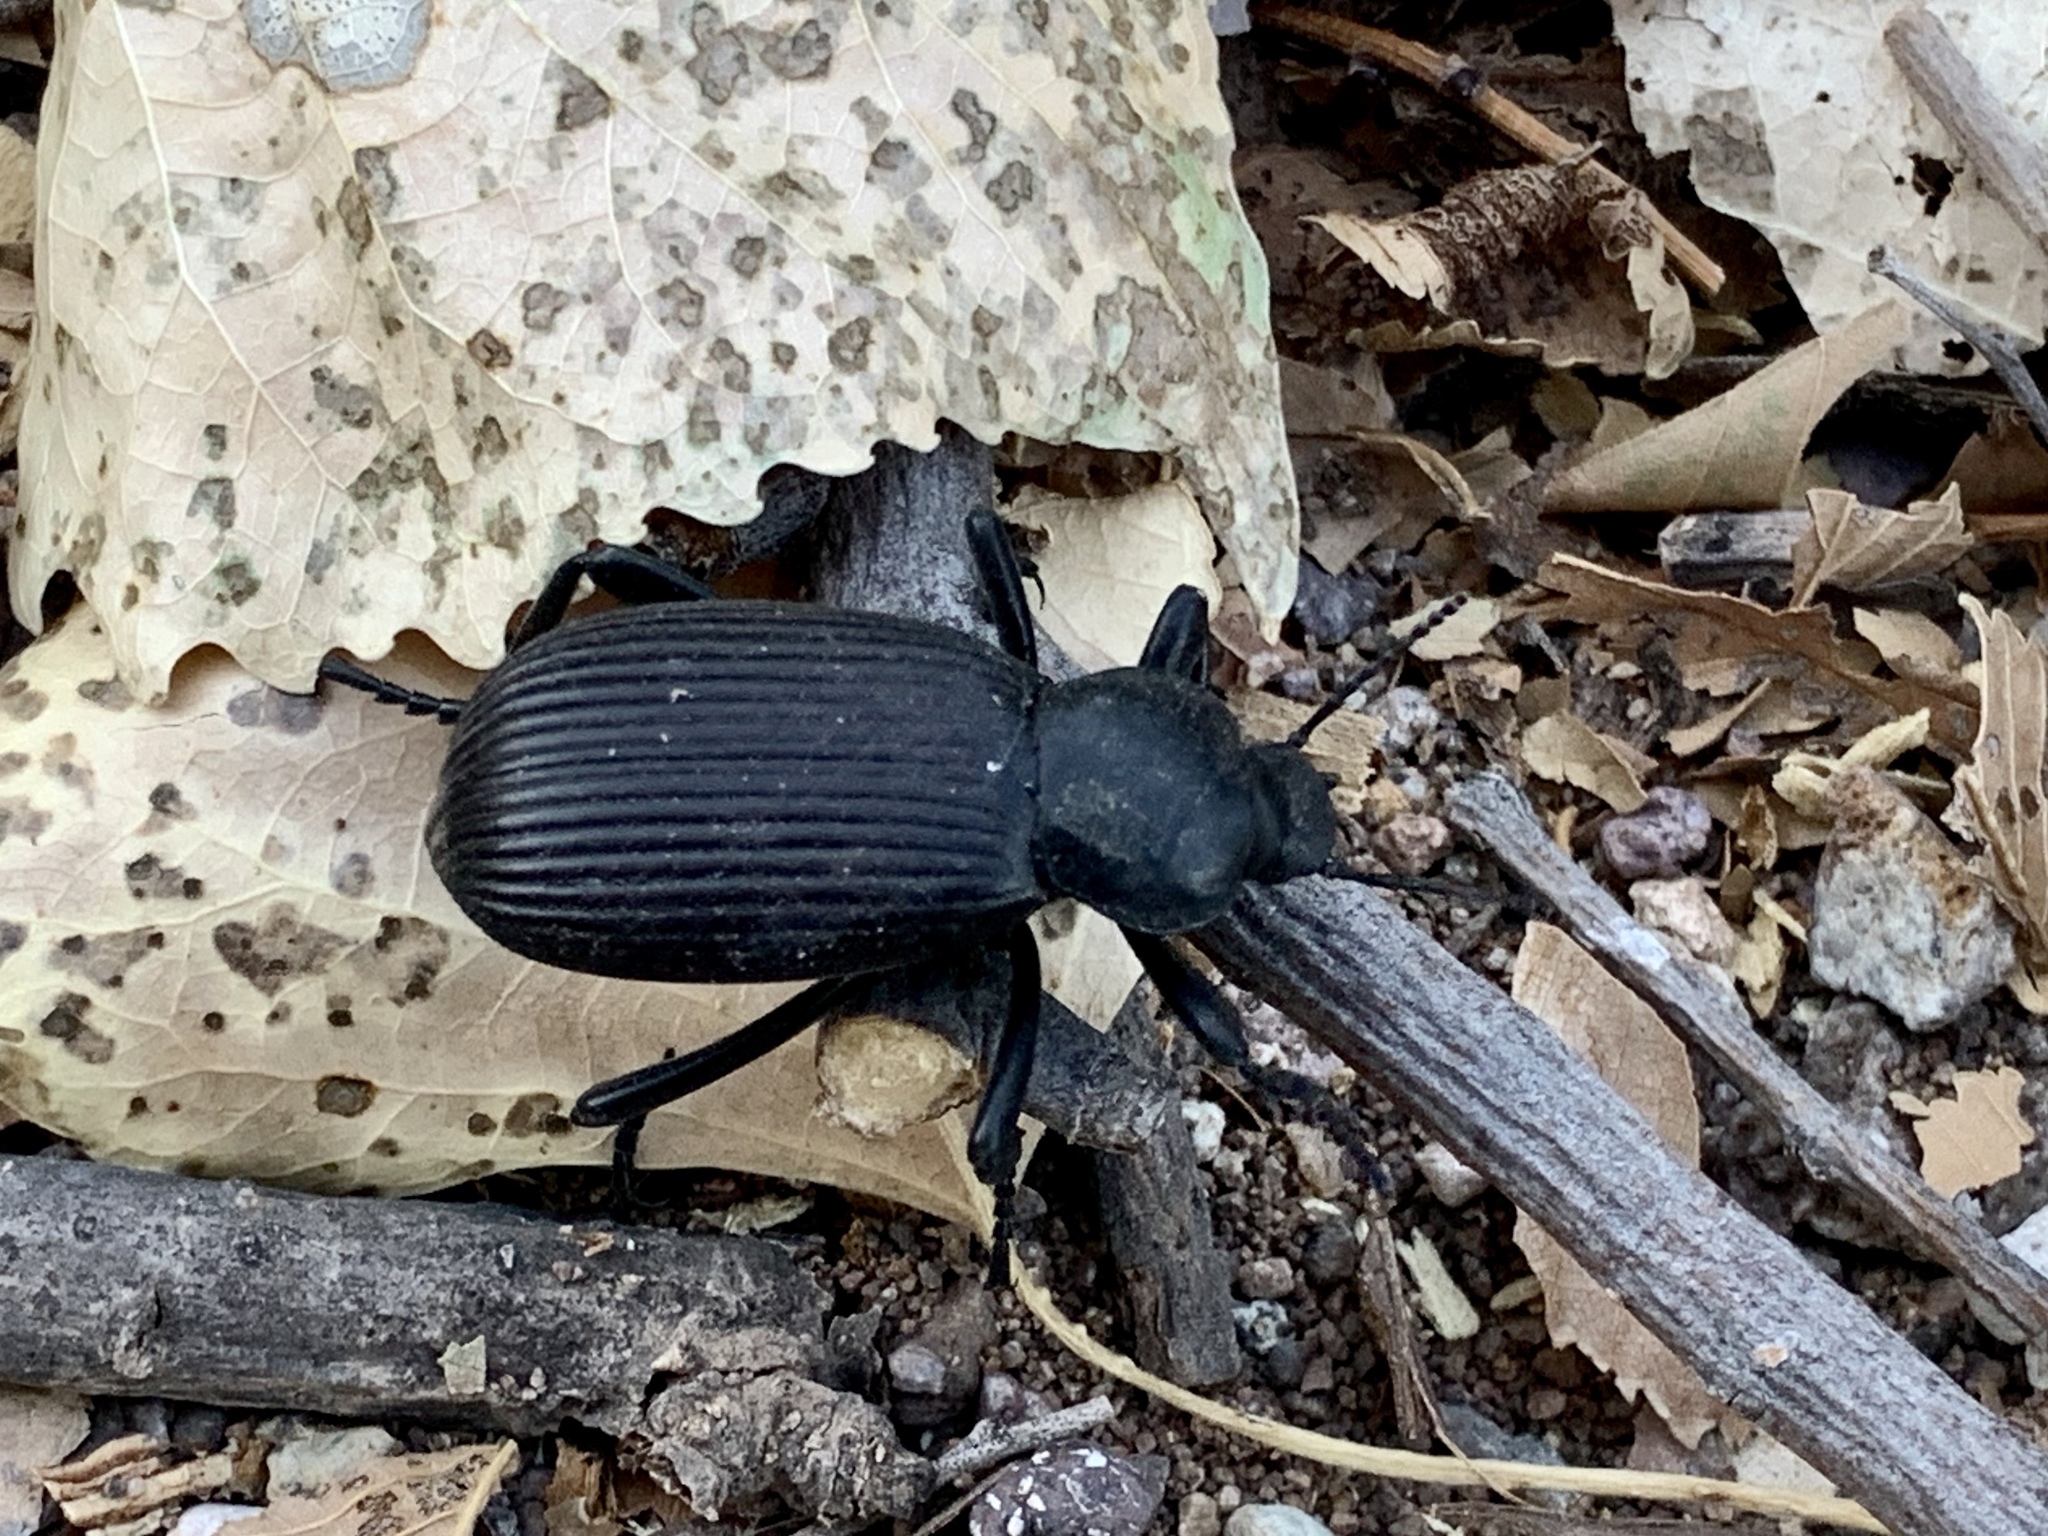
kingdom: Animalia
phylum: Arthropoda
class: Insecta
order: Coleoptera
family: Tenebrionidae
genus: Eleodes
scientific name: Eleodes obscura
